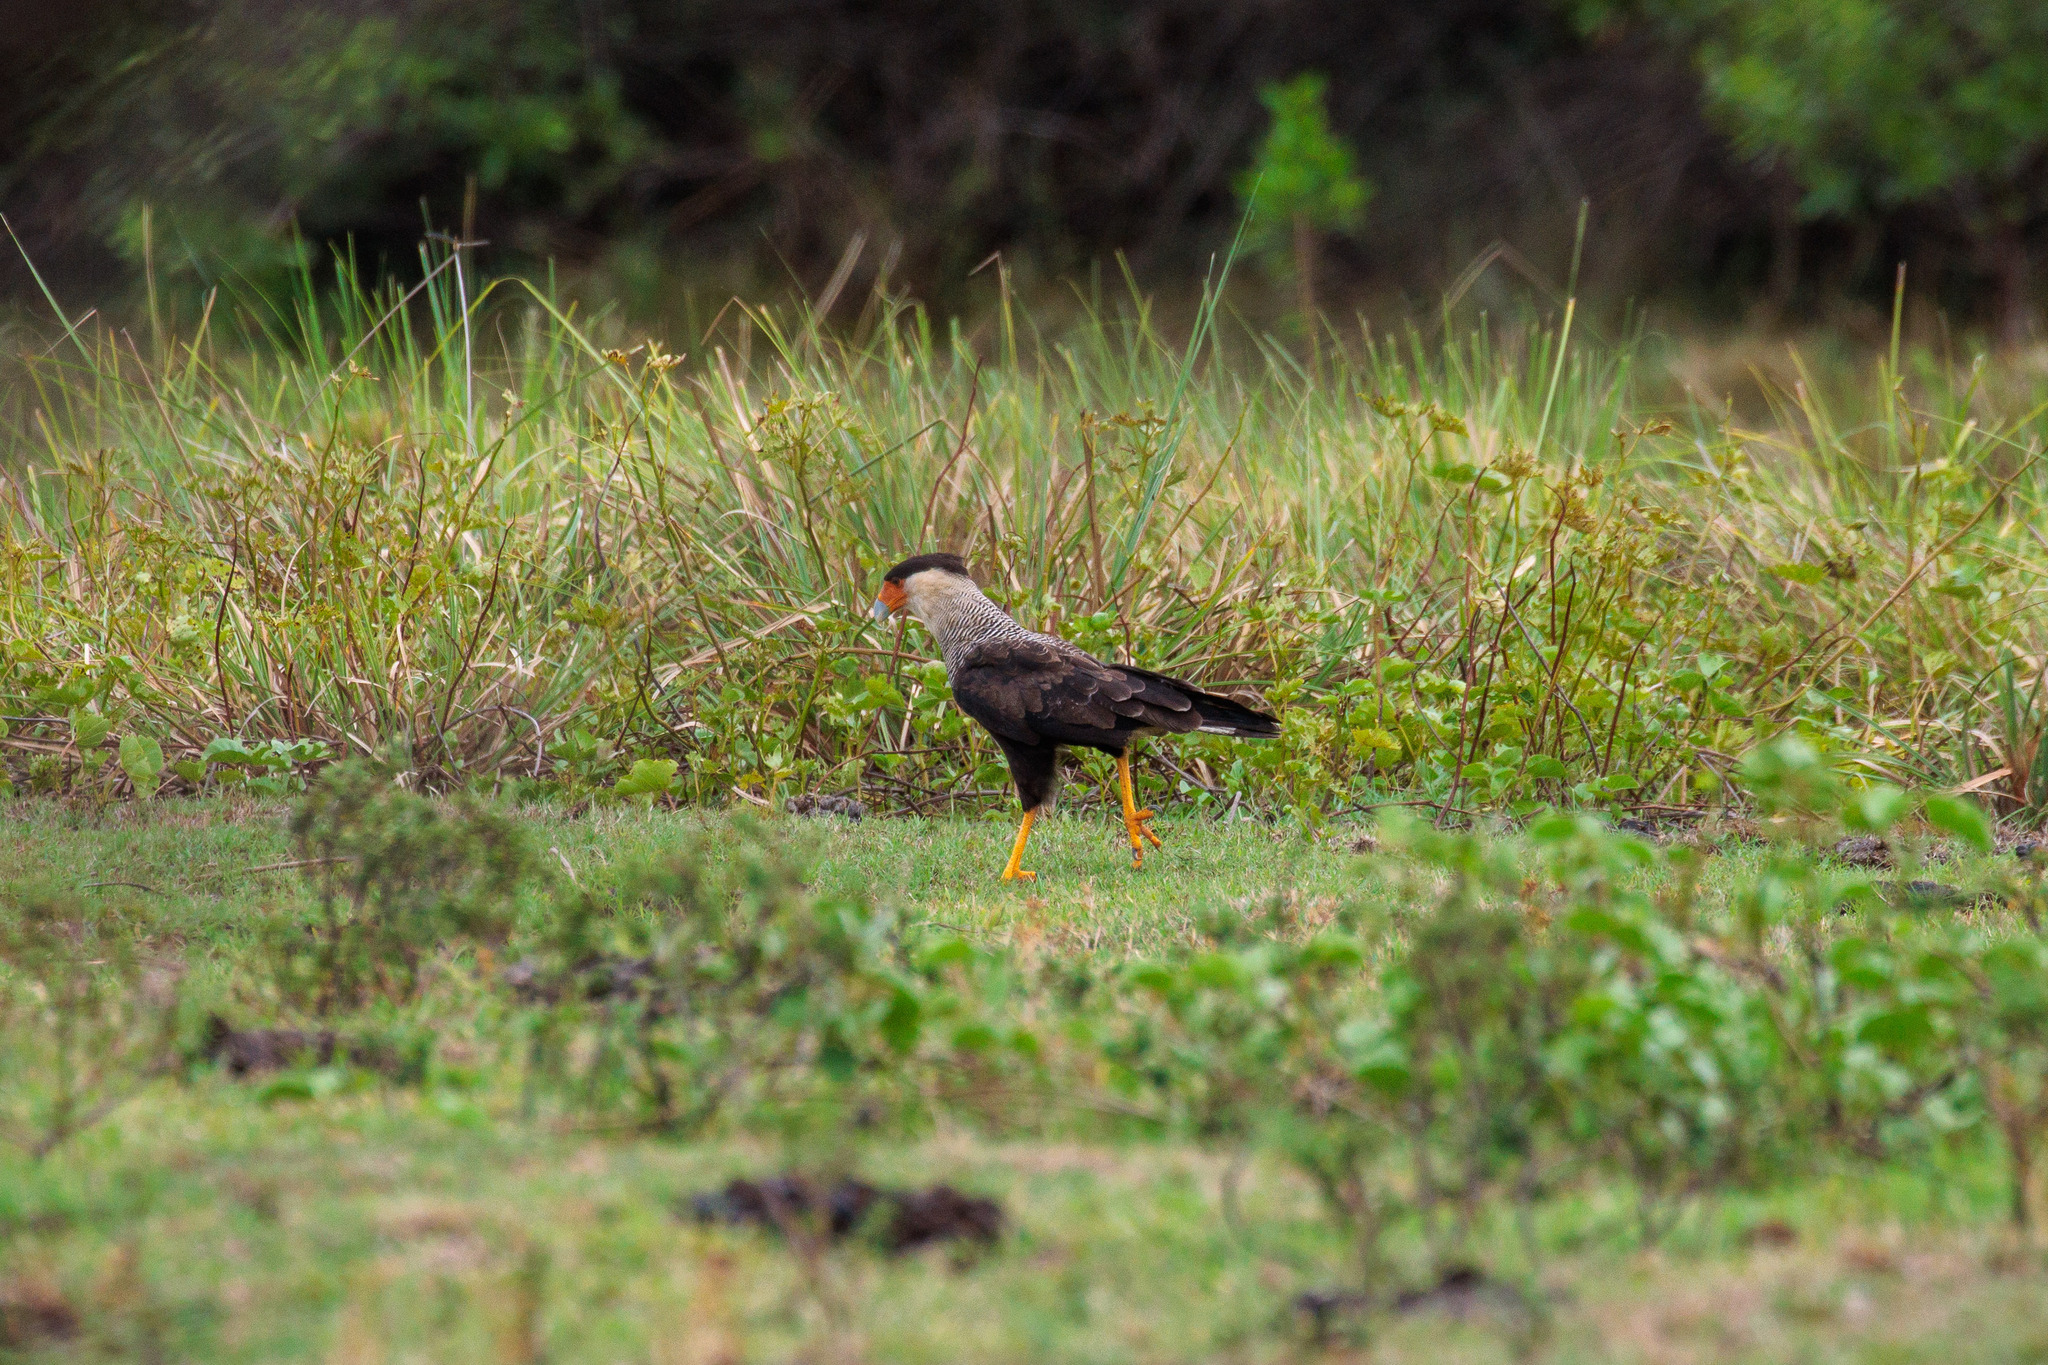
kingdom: Animalia
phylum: Chordata
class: Aves
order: Falconiformes
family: Falconidae
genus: Caracara
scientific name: Caracara plancus
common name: Southern caracara
